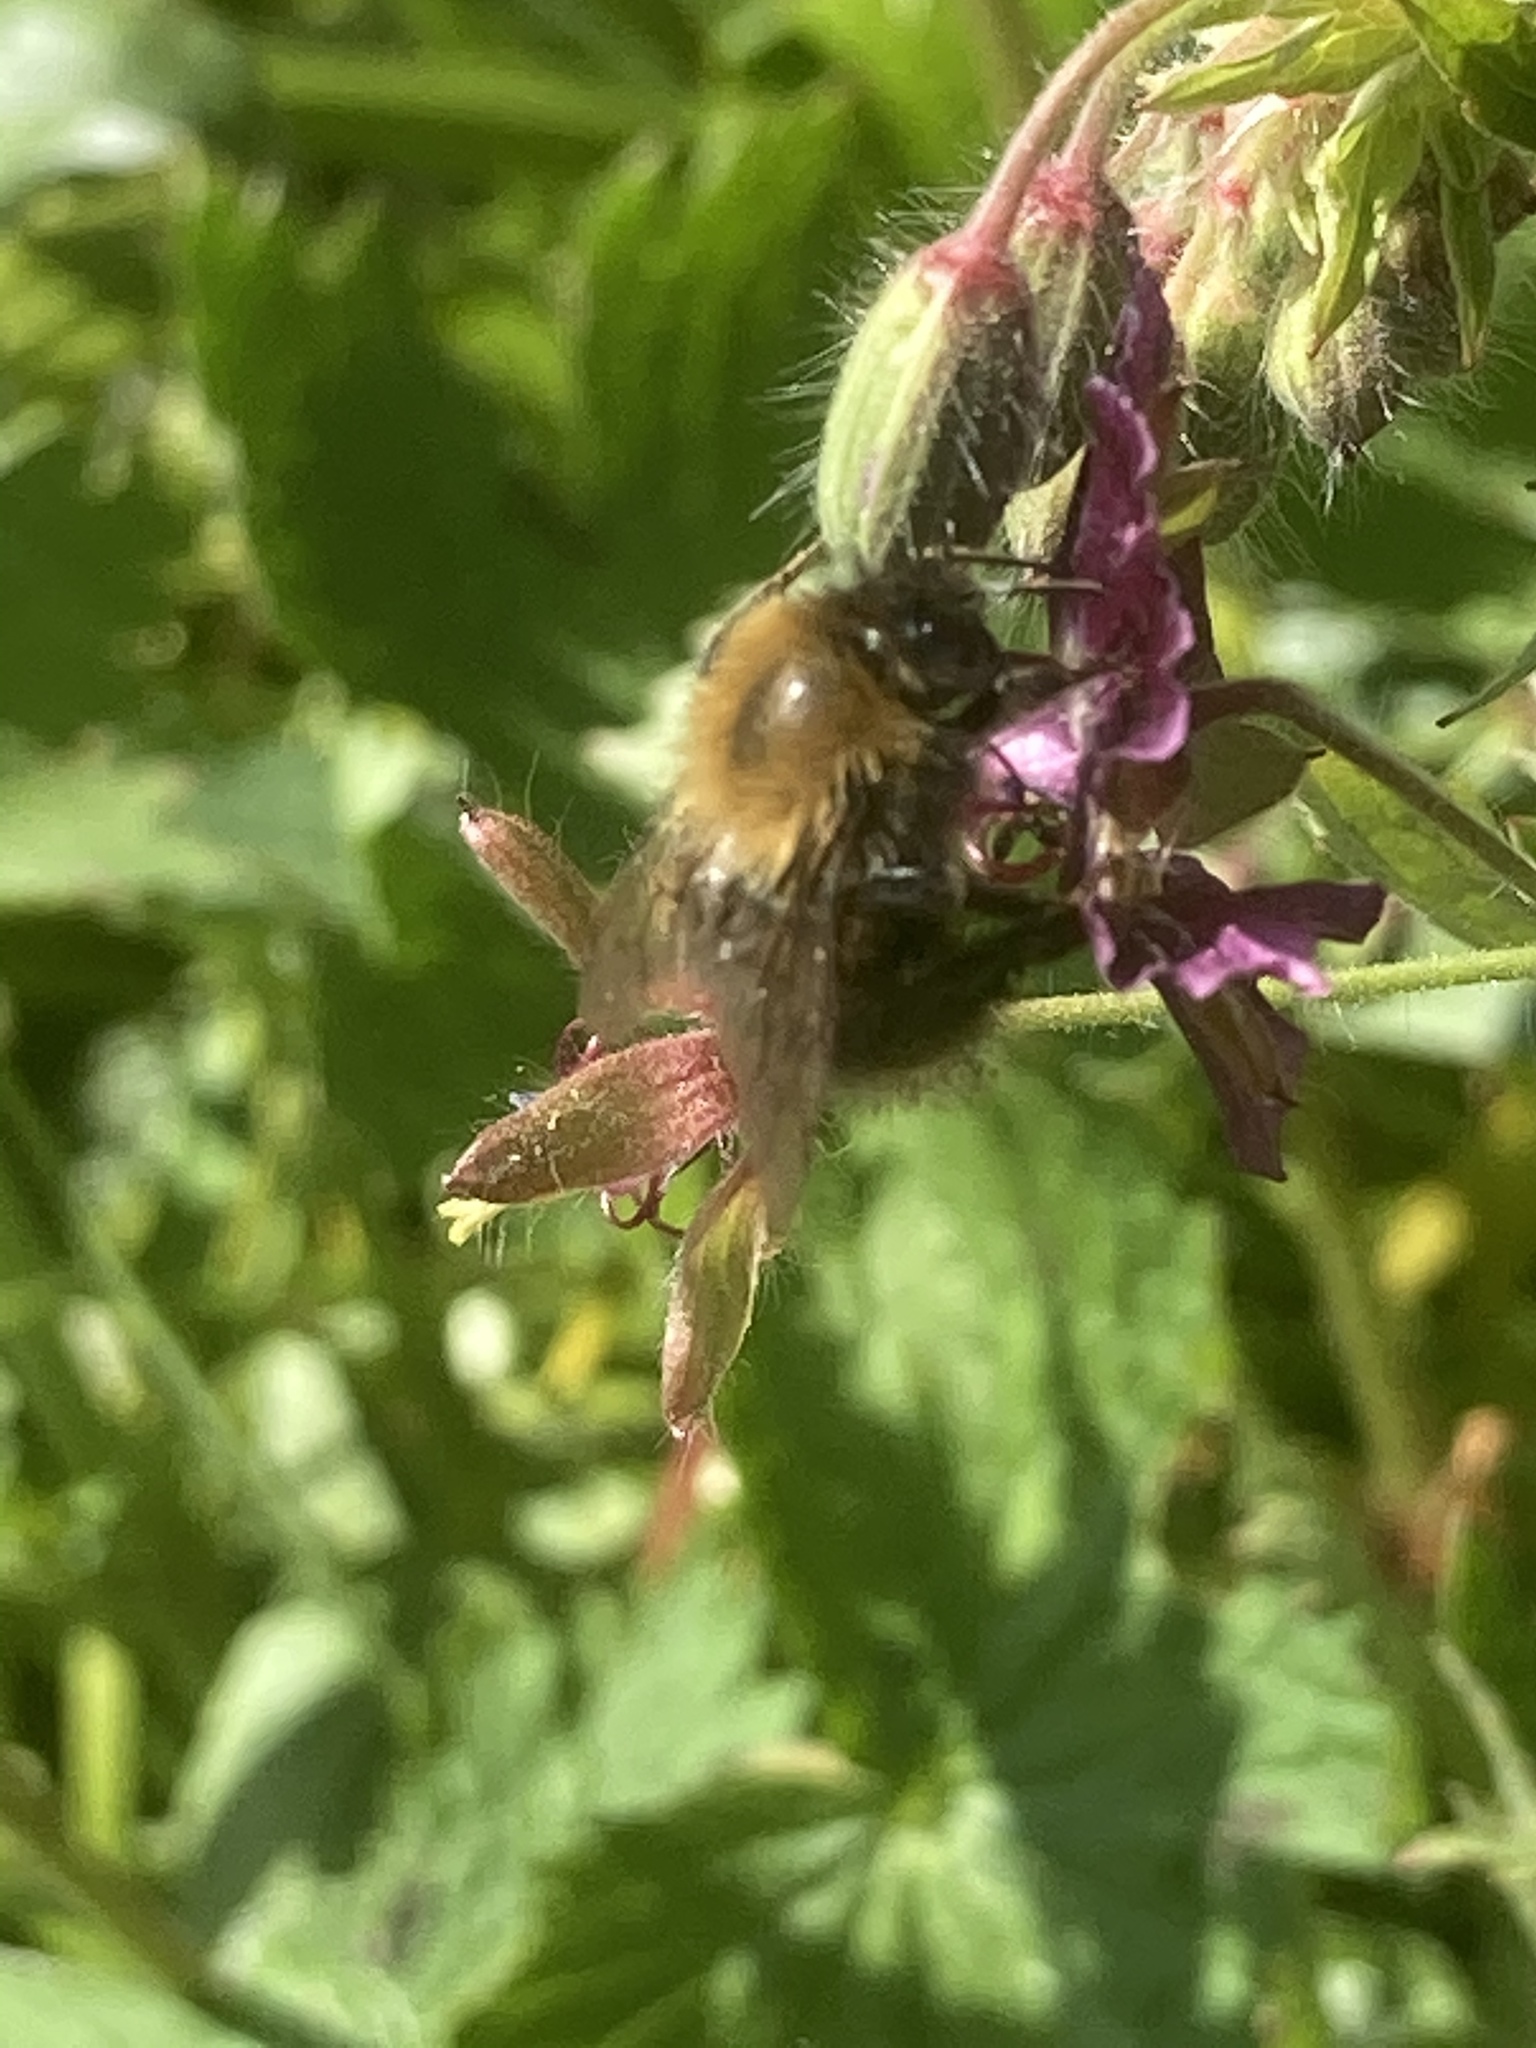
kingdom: Animalia
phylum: Arthropoda
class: Insecta
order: Hymenoptera
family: Apidae
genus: Bombus
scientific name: Bombus hypnorum
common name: New garden bumblebee
